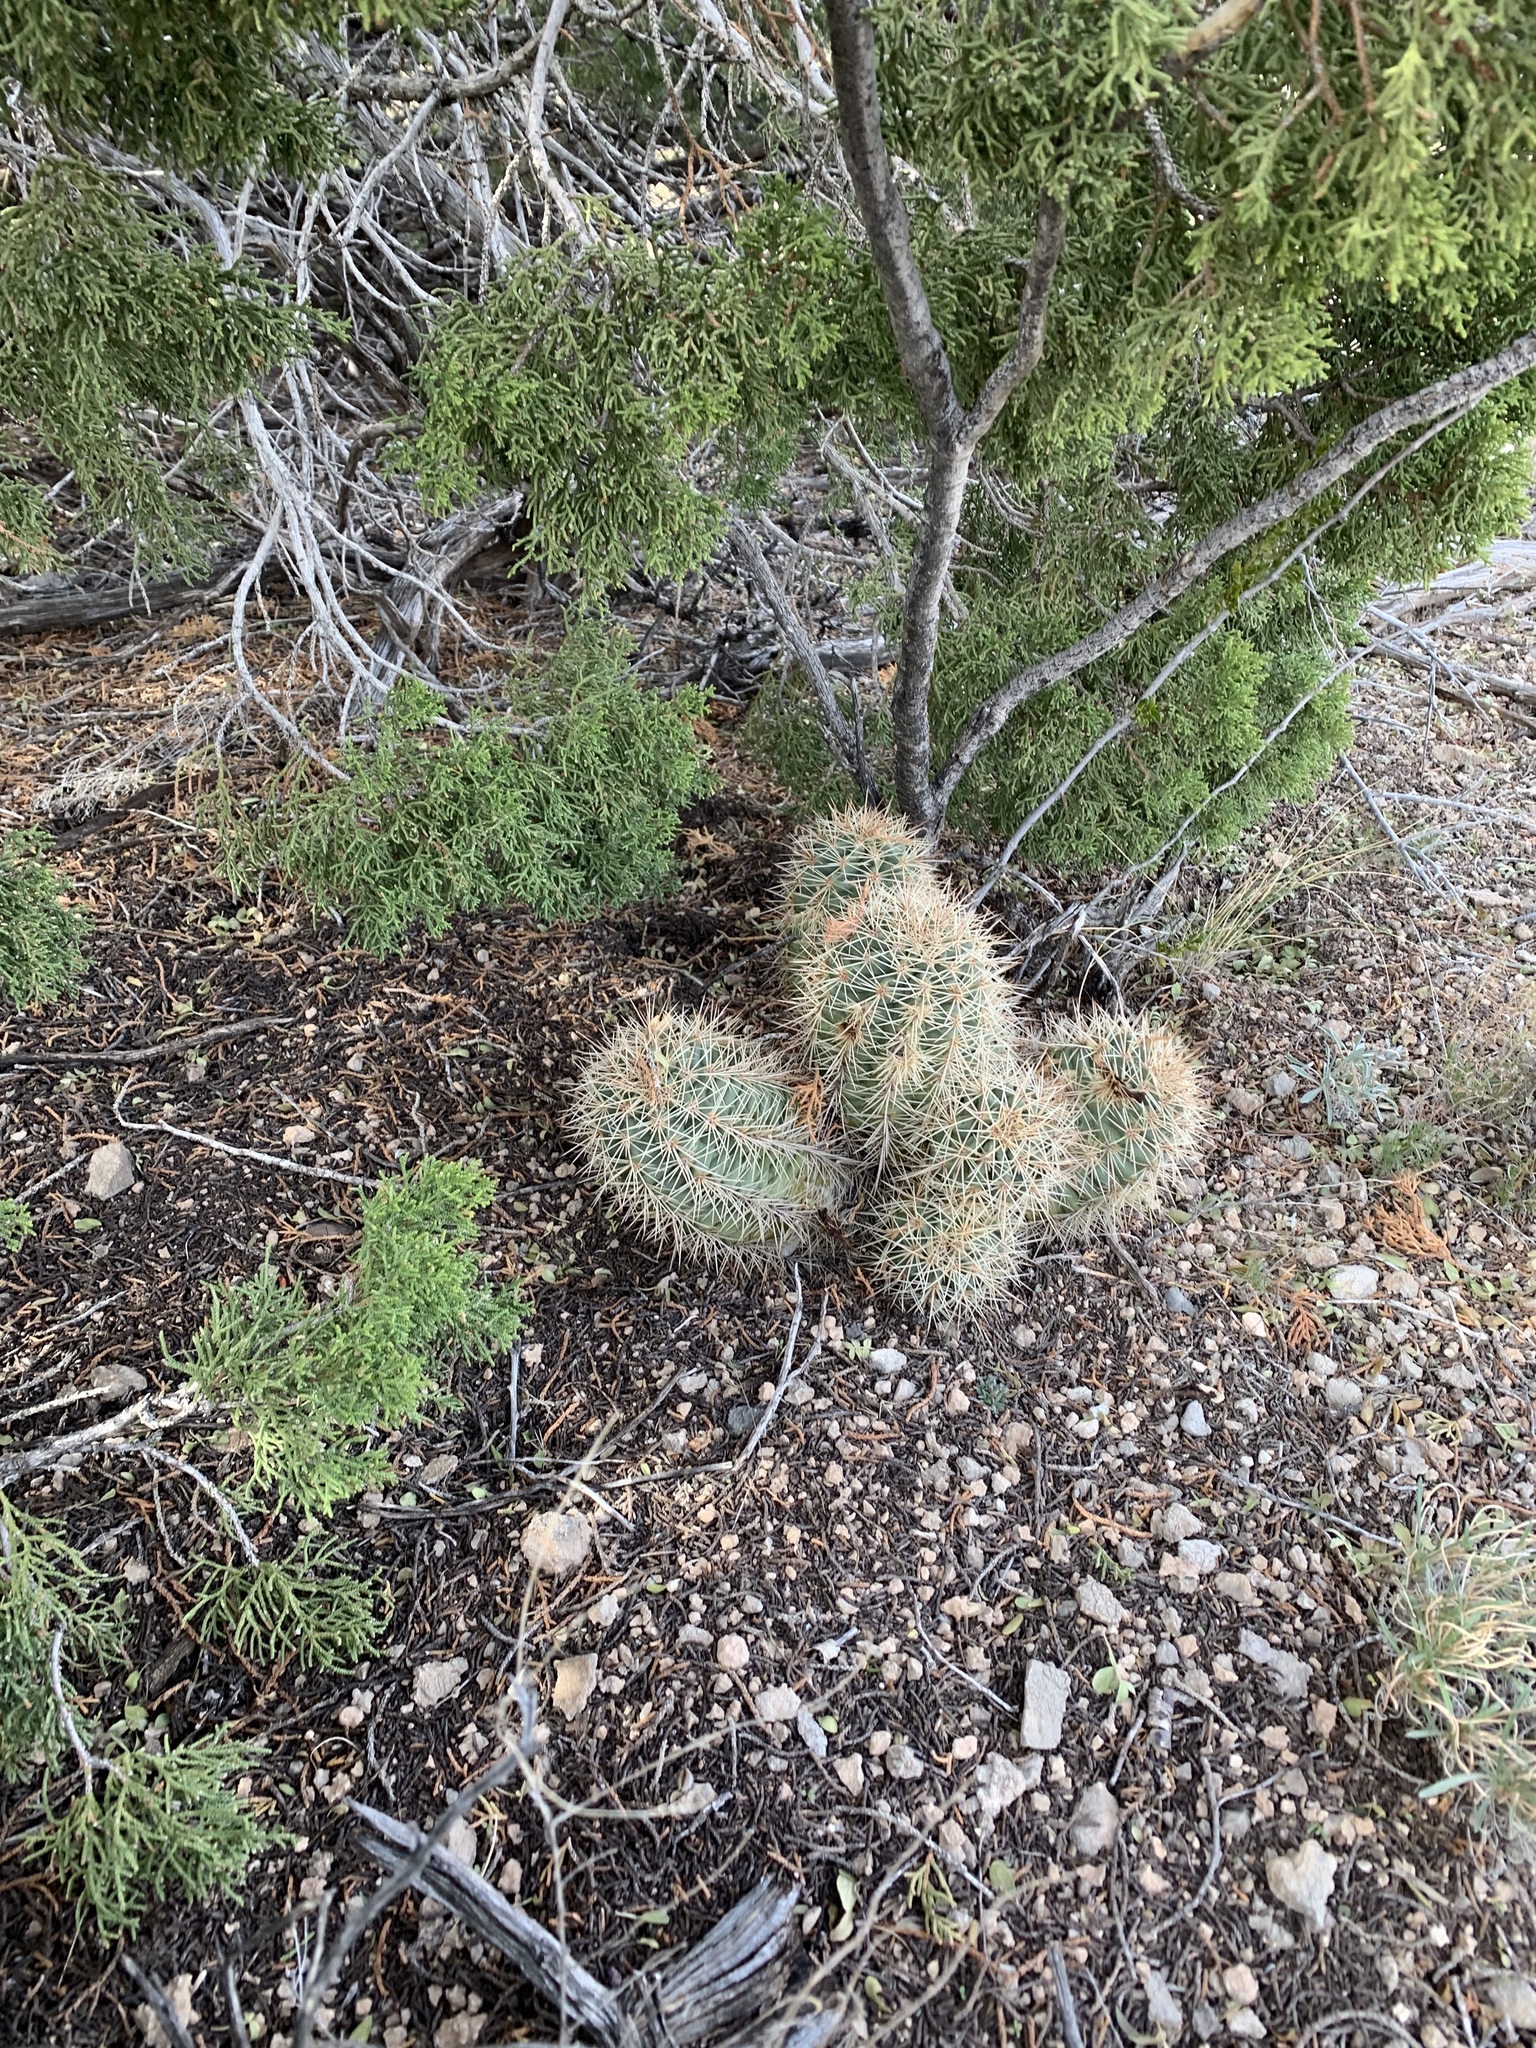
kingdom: Plantae
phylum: Tracheophyta
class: Magnoliopsida
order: Caryophyllales
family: Cactaceae
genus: Echinocereus
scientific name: Echinocereus coccineus
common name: Scarlet hedgehog cactus
